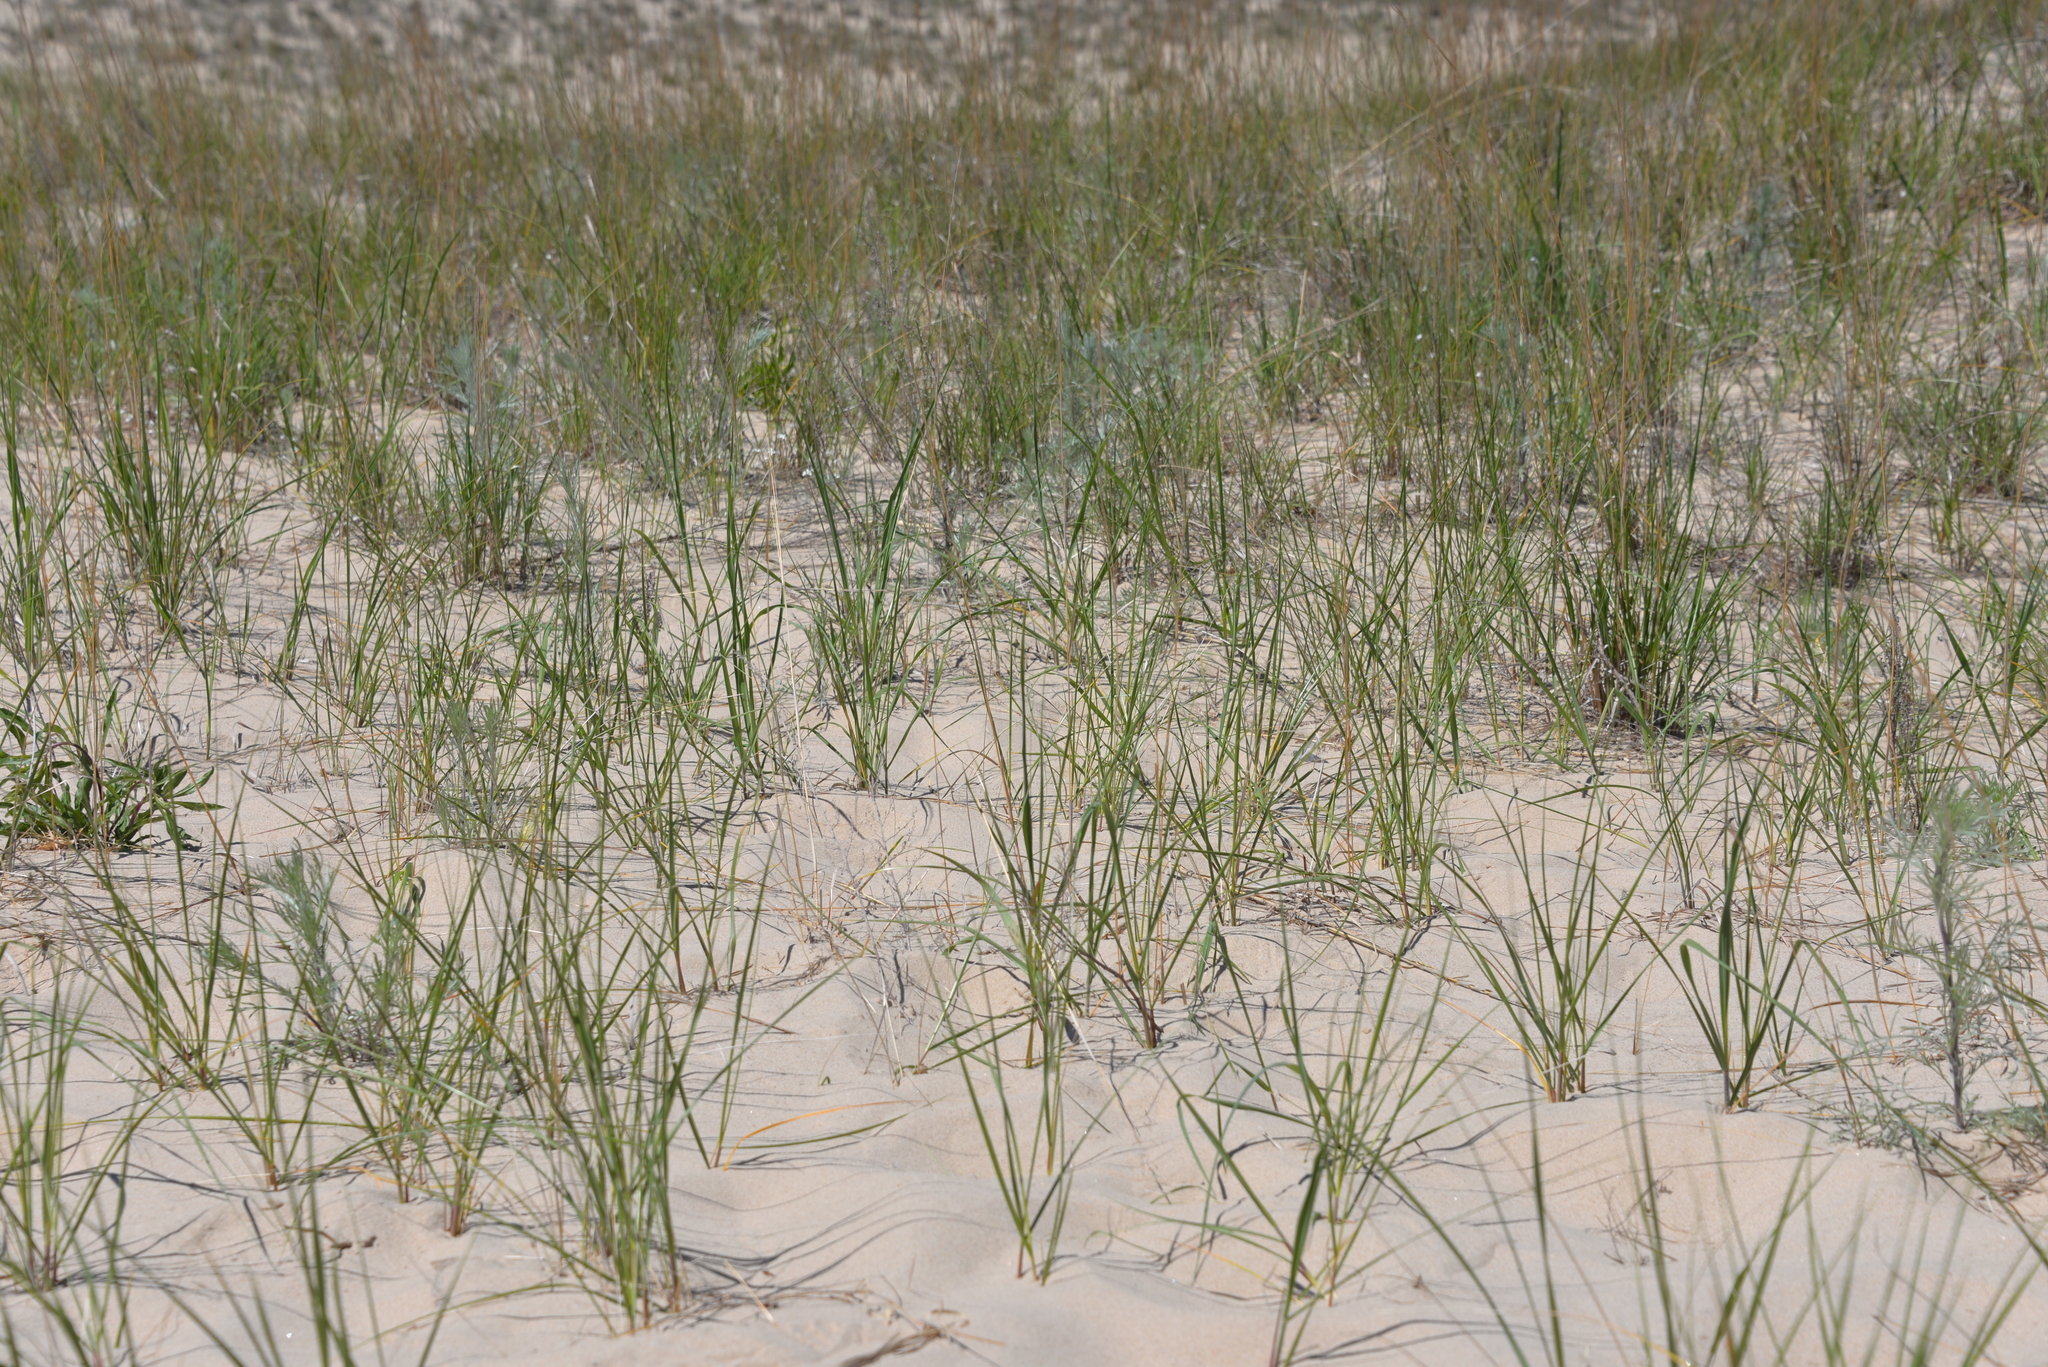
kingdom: Plantae
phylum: Tracheophyta
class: Liliopsida
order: Poales
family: Poaceae
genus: Calamagrostis
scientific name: Calamagrostis breviligulata
